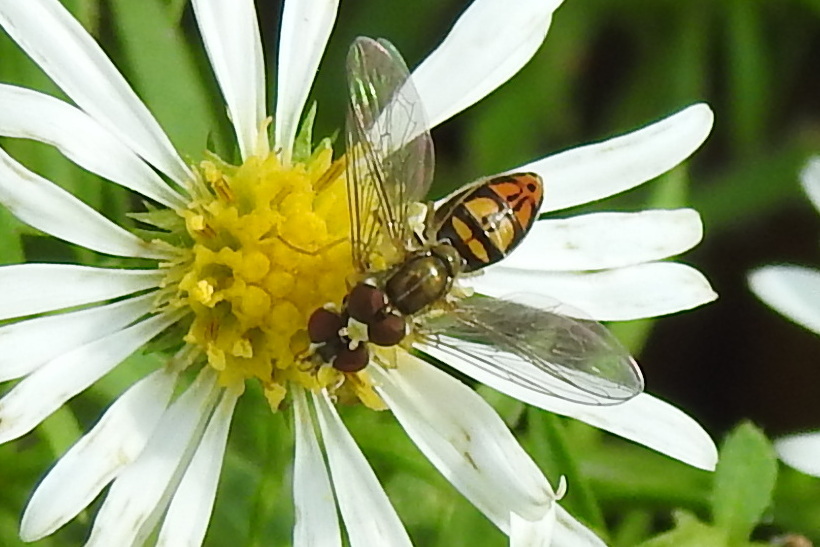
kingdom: Animalia
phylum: Arthropoda
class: Insecta
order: Diptera
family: Syrphidae
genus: Toxomerus
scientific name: Toxomerus marginatus
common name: Syrphid fly
